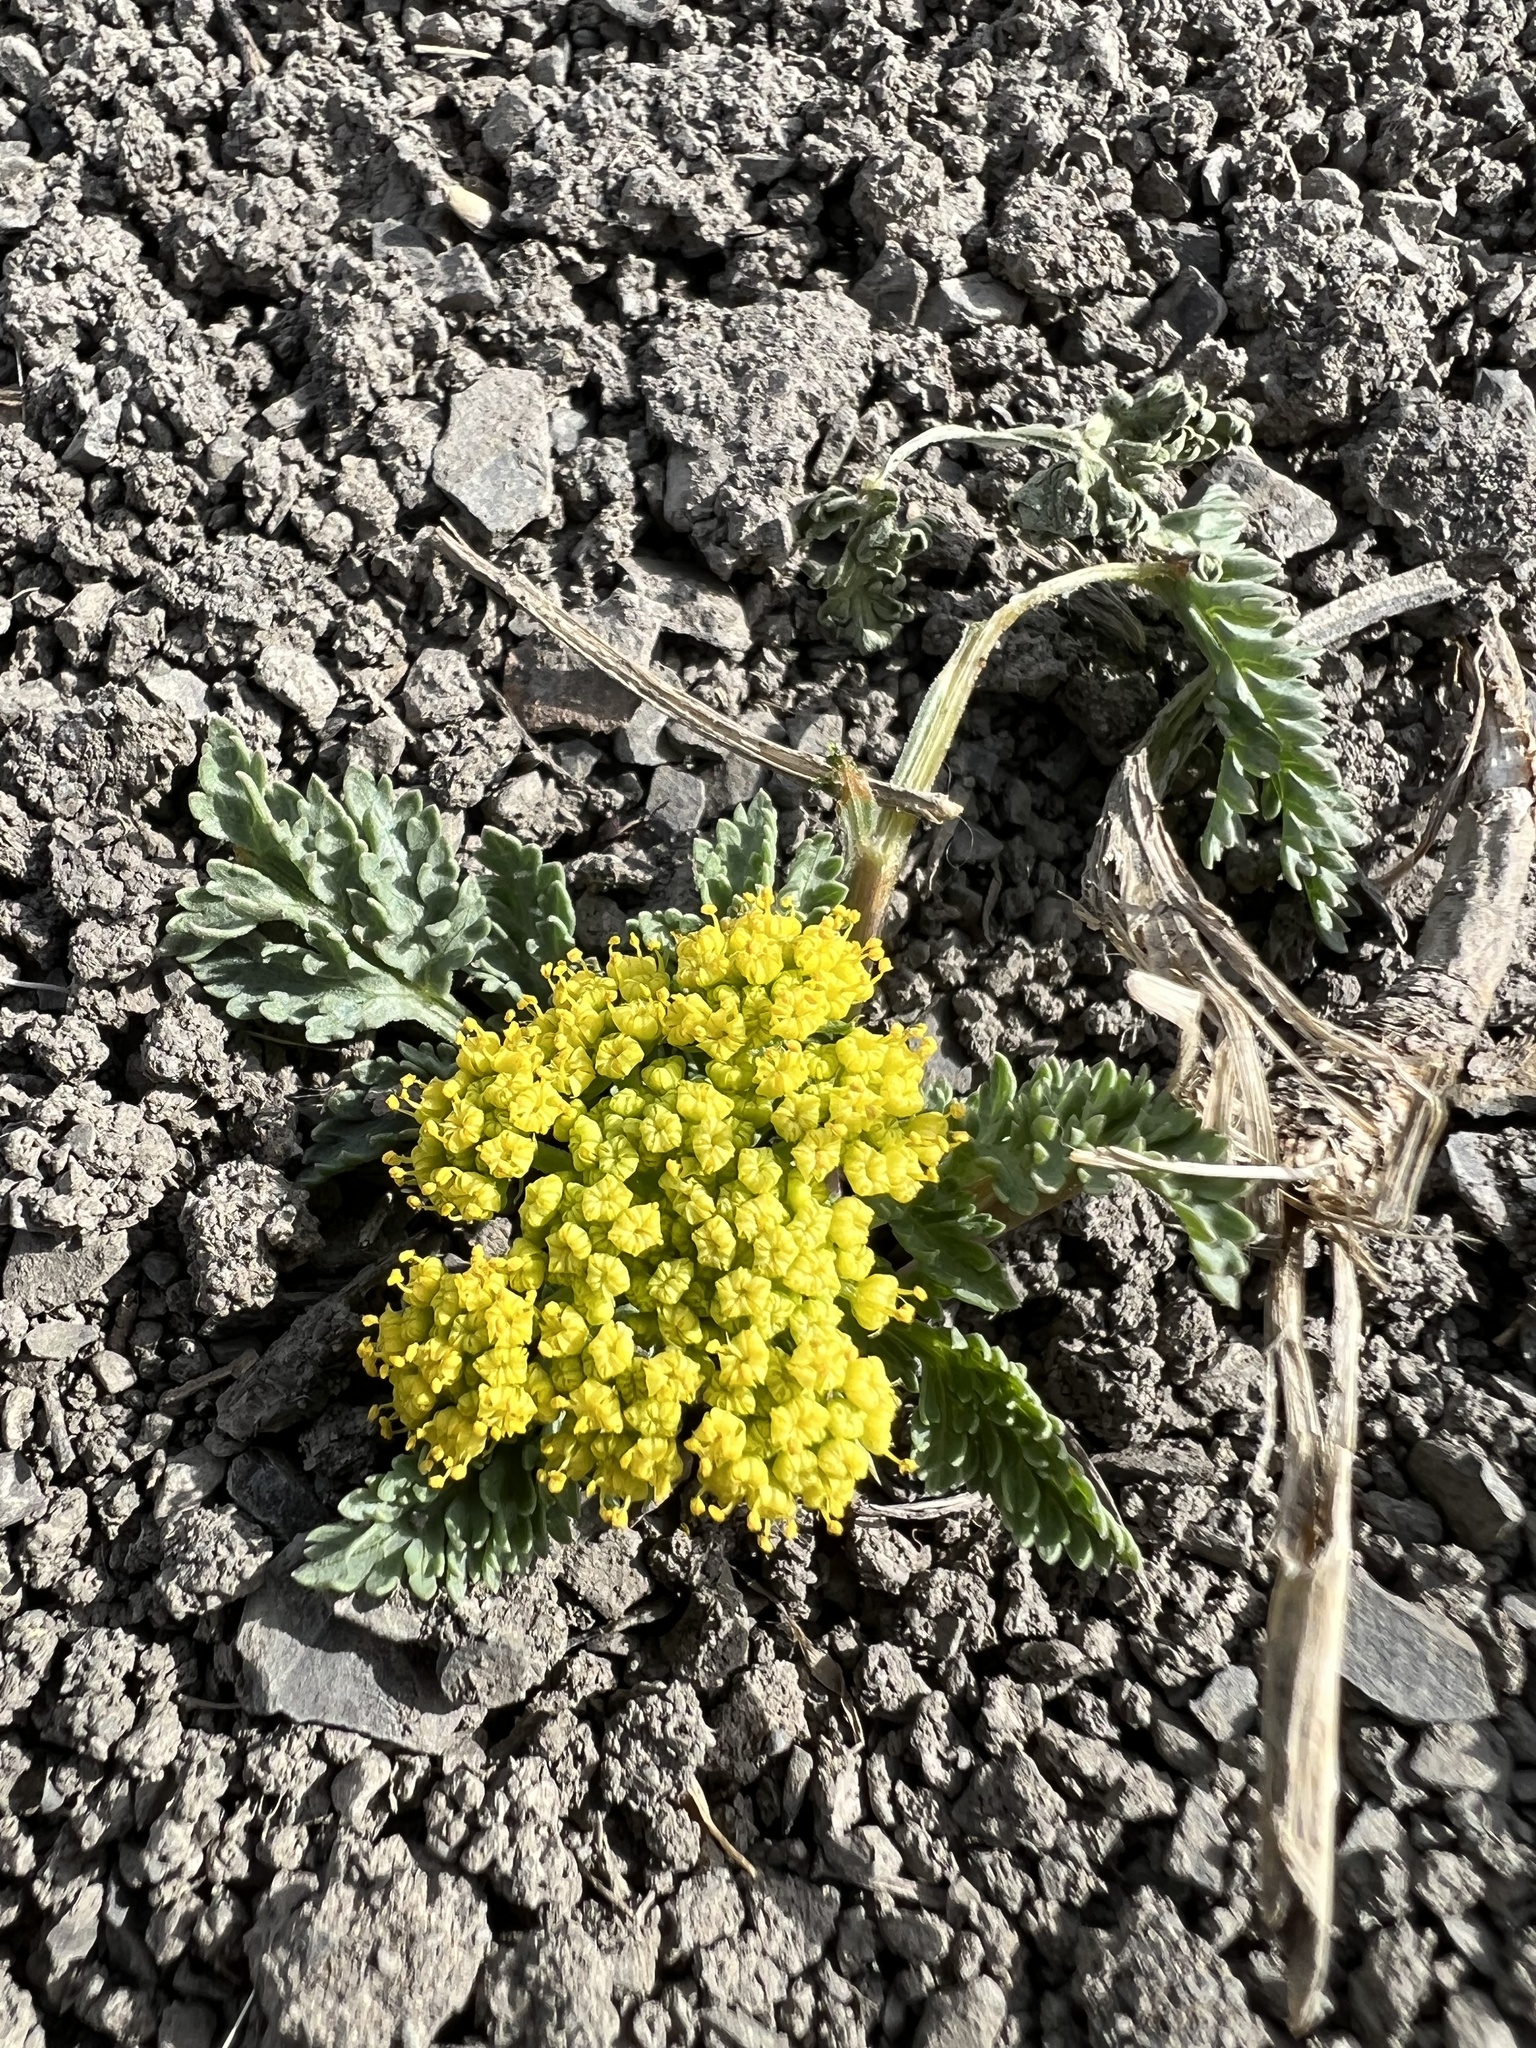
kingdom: Plantae
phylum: Tracheophyta
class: Magnoliopsida
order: Apiales
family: Apiaceae
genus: Musineon
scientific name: Musineon divaricatum
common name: Plains musineon
